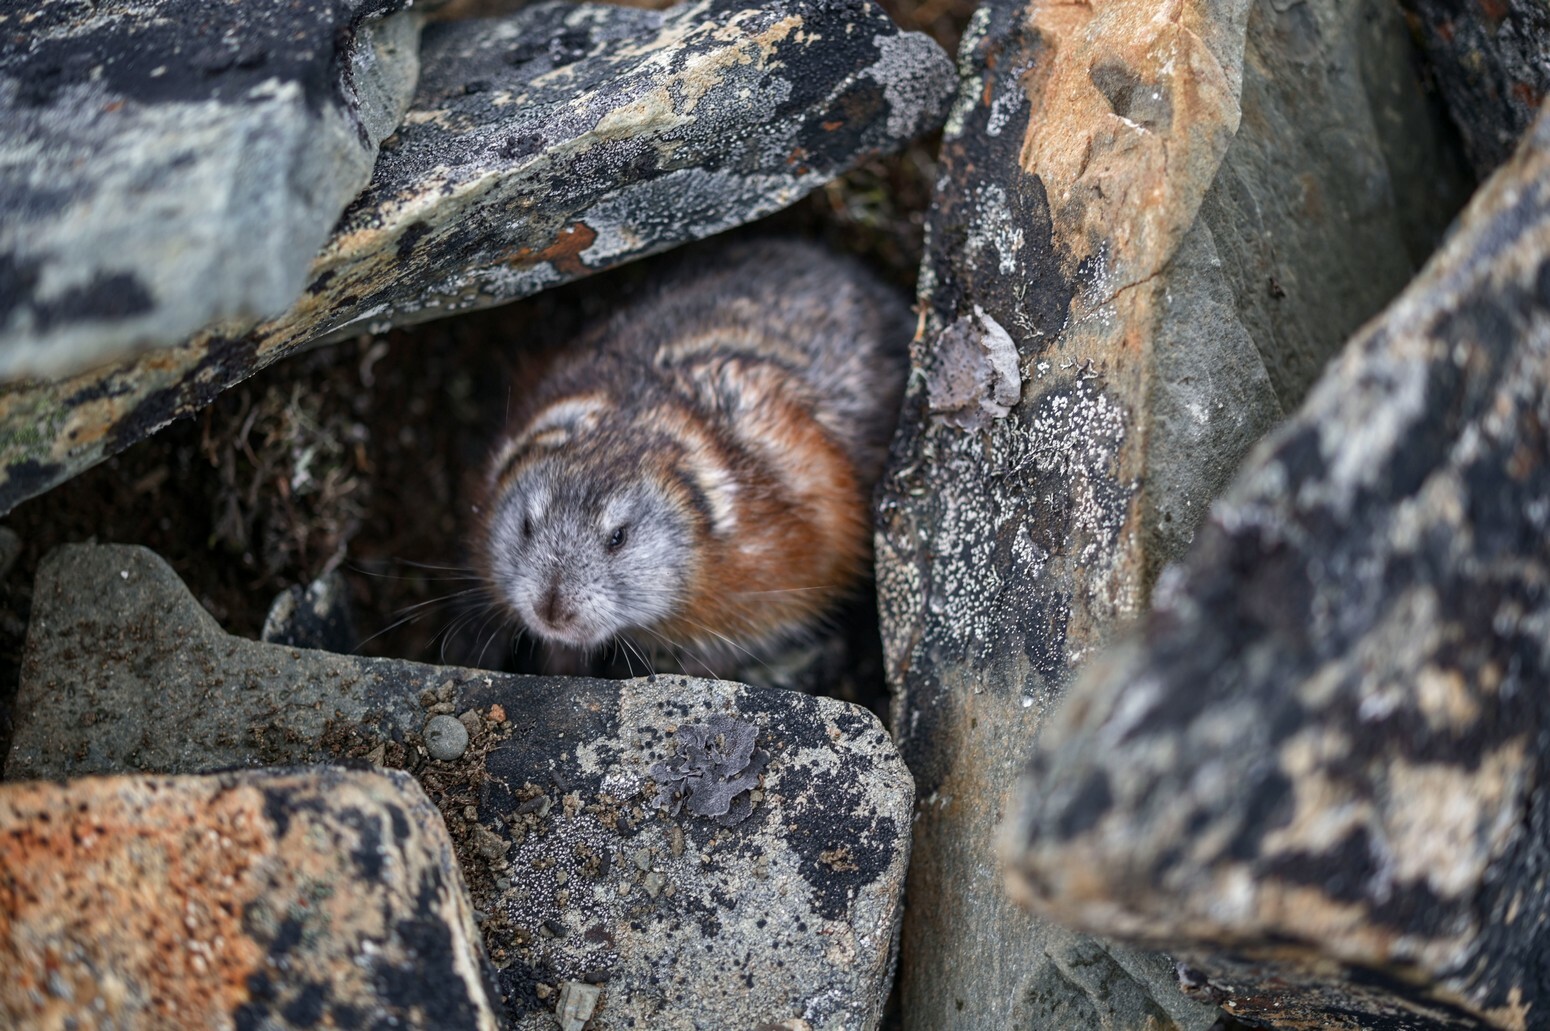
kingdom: Animalia
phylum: Chordata
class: Mammalia
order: Rodentia
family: Cricetidae
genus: Dicrostonyx
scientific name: Dicrostonyx torquatus
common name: Arctic lemming
